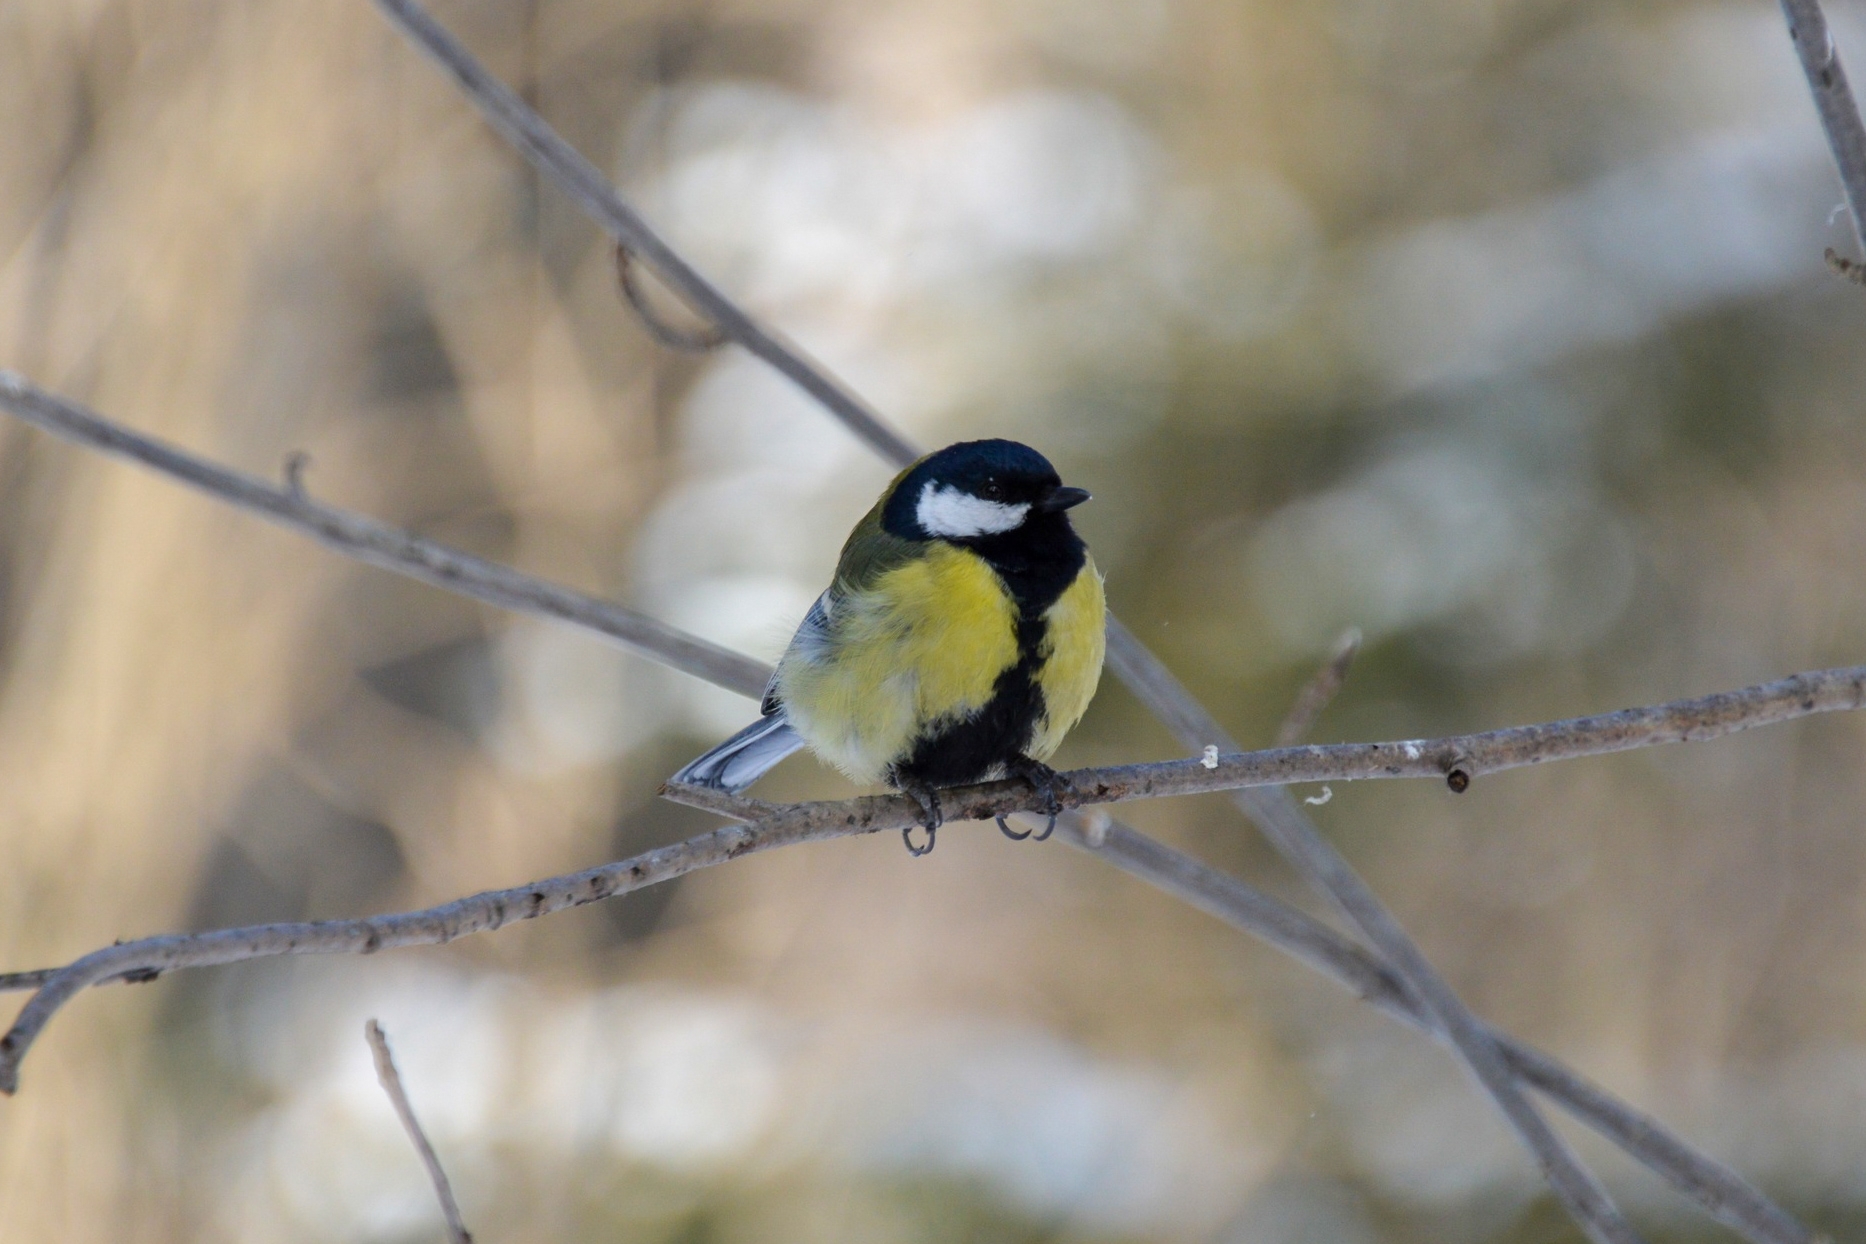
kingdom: Animalia
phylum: Chordata
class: Aves
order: Passeriformes
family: Paridae
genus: Parus
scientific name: Parus major
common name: Great tit
